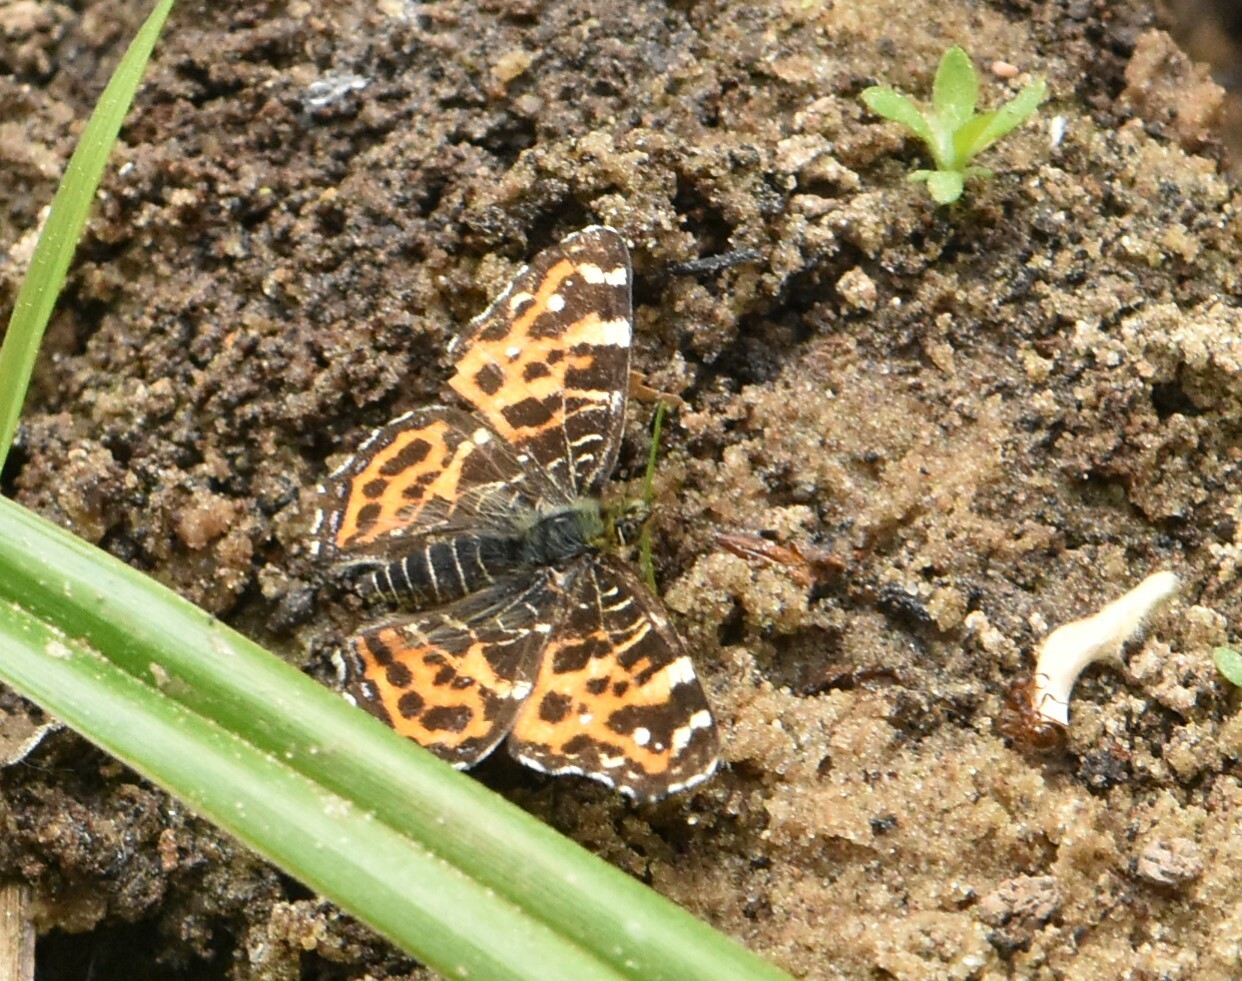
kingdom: Animalia
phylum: Arthropoda
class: Insecta
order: Lepidoptera
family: Nymphalidae
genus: Araschnia
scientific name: Araschnia levana
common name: Map butterfly
